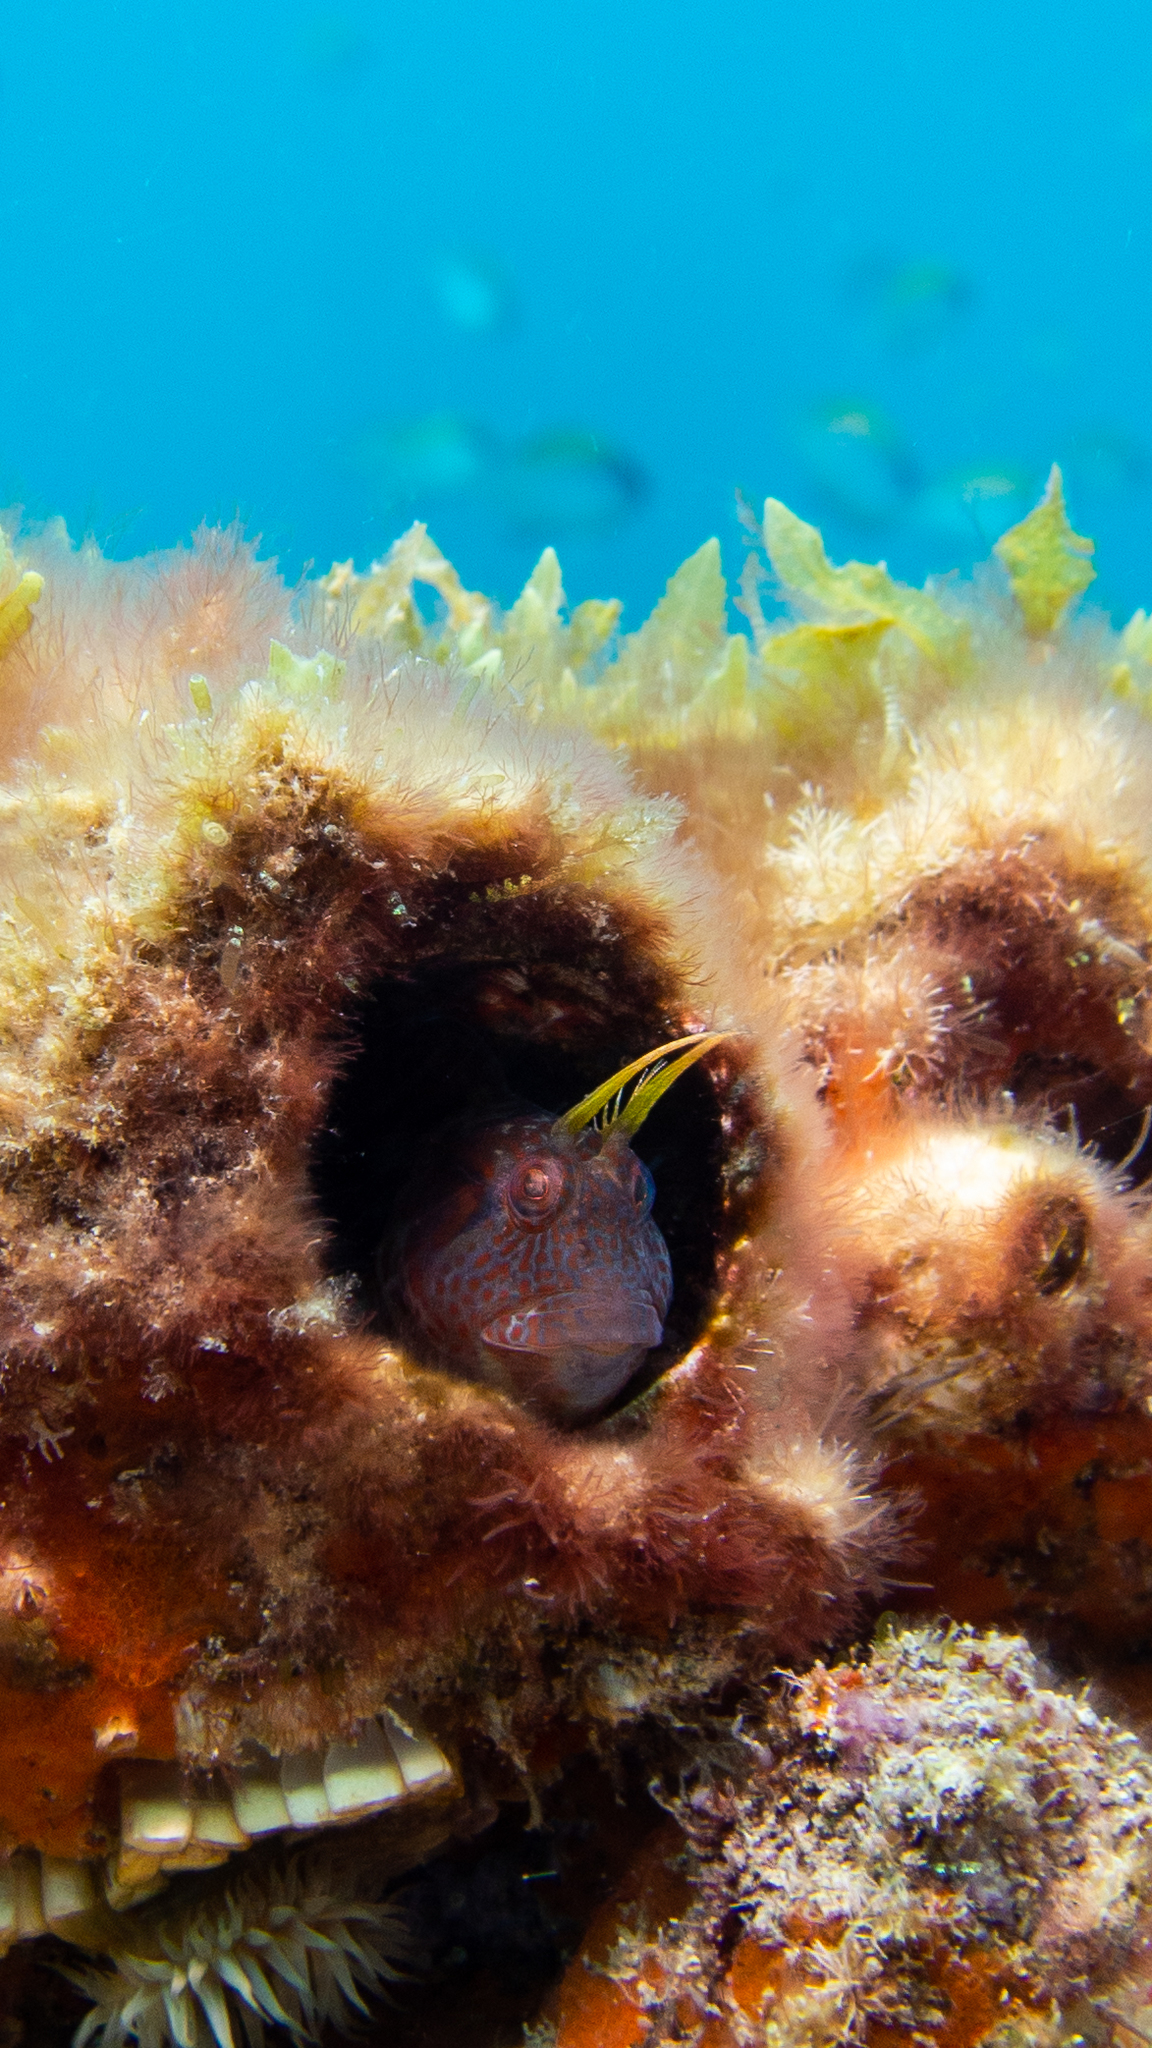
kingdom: Animalia
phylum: Chordata
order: Perciformes
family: Blenniidae
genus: Parablennius
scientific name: Parablennius postoculomaculatus
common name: False tasmanian blenny
